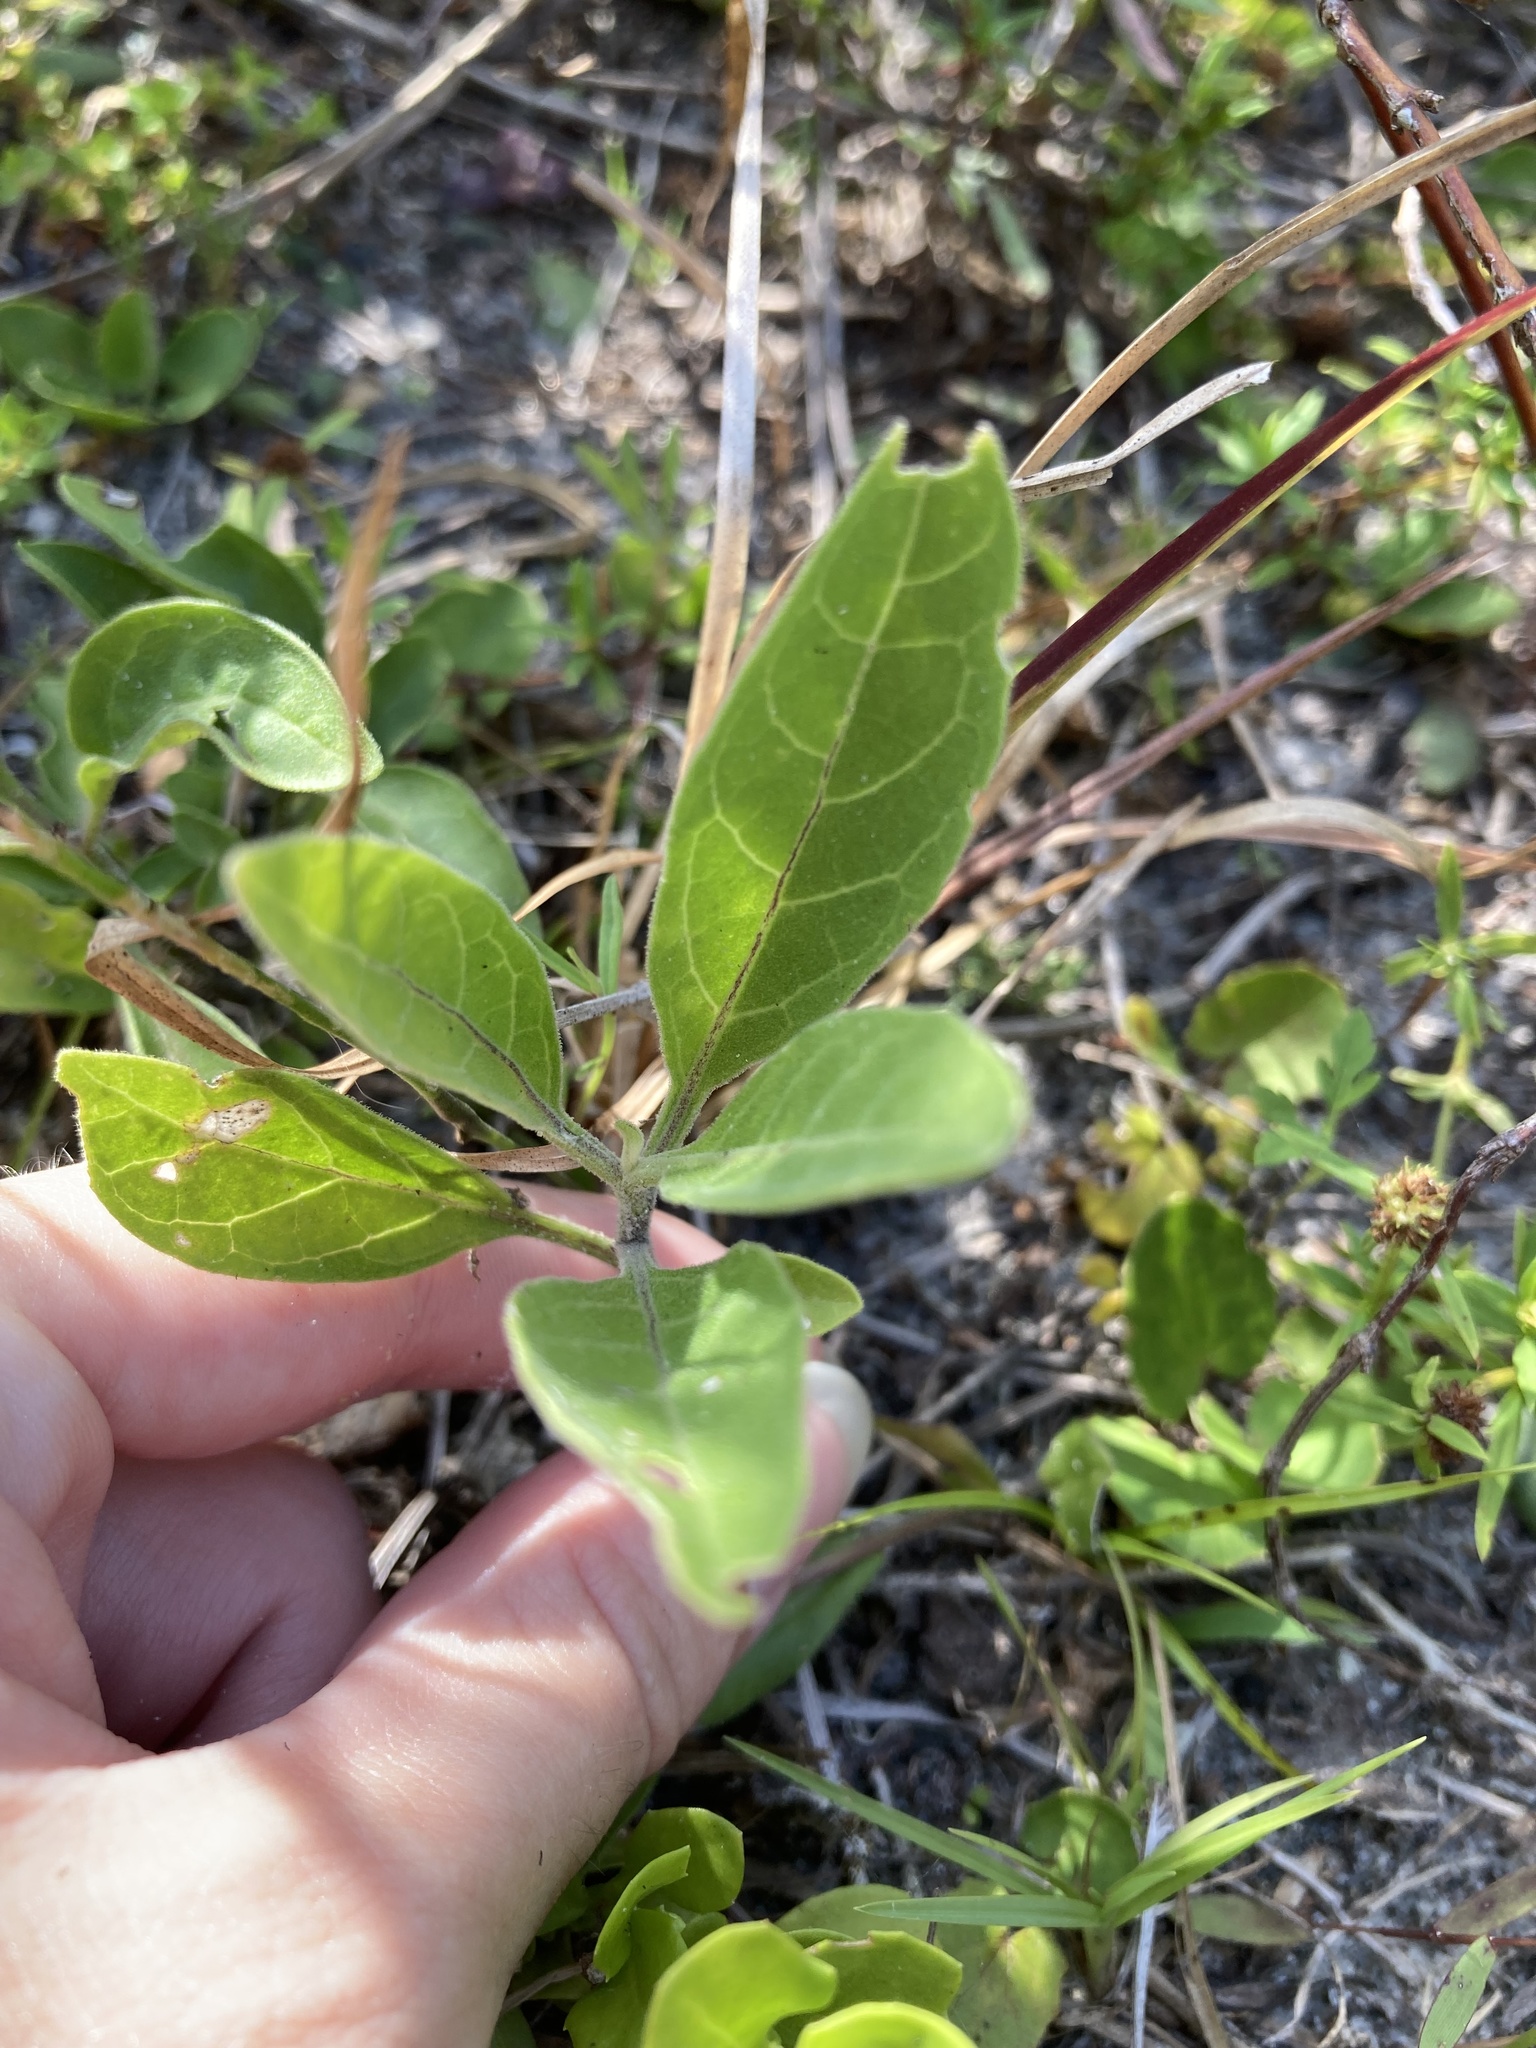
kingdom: Plantae
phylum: Tracheophyta
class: Magnoliopsida
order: Solanales
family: Solanaceae
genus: Physalis
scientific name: Physalis walteri
